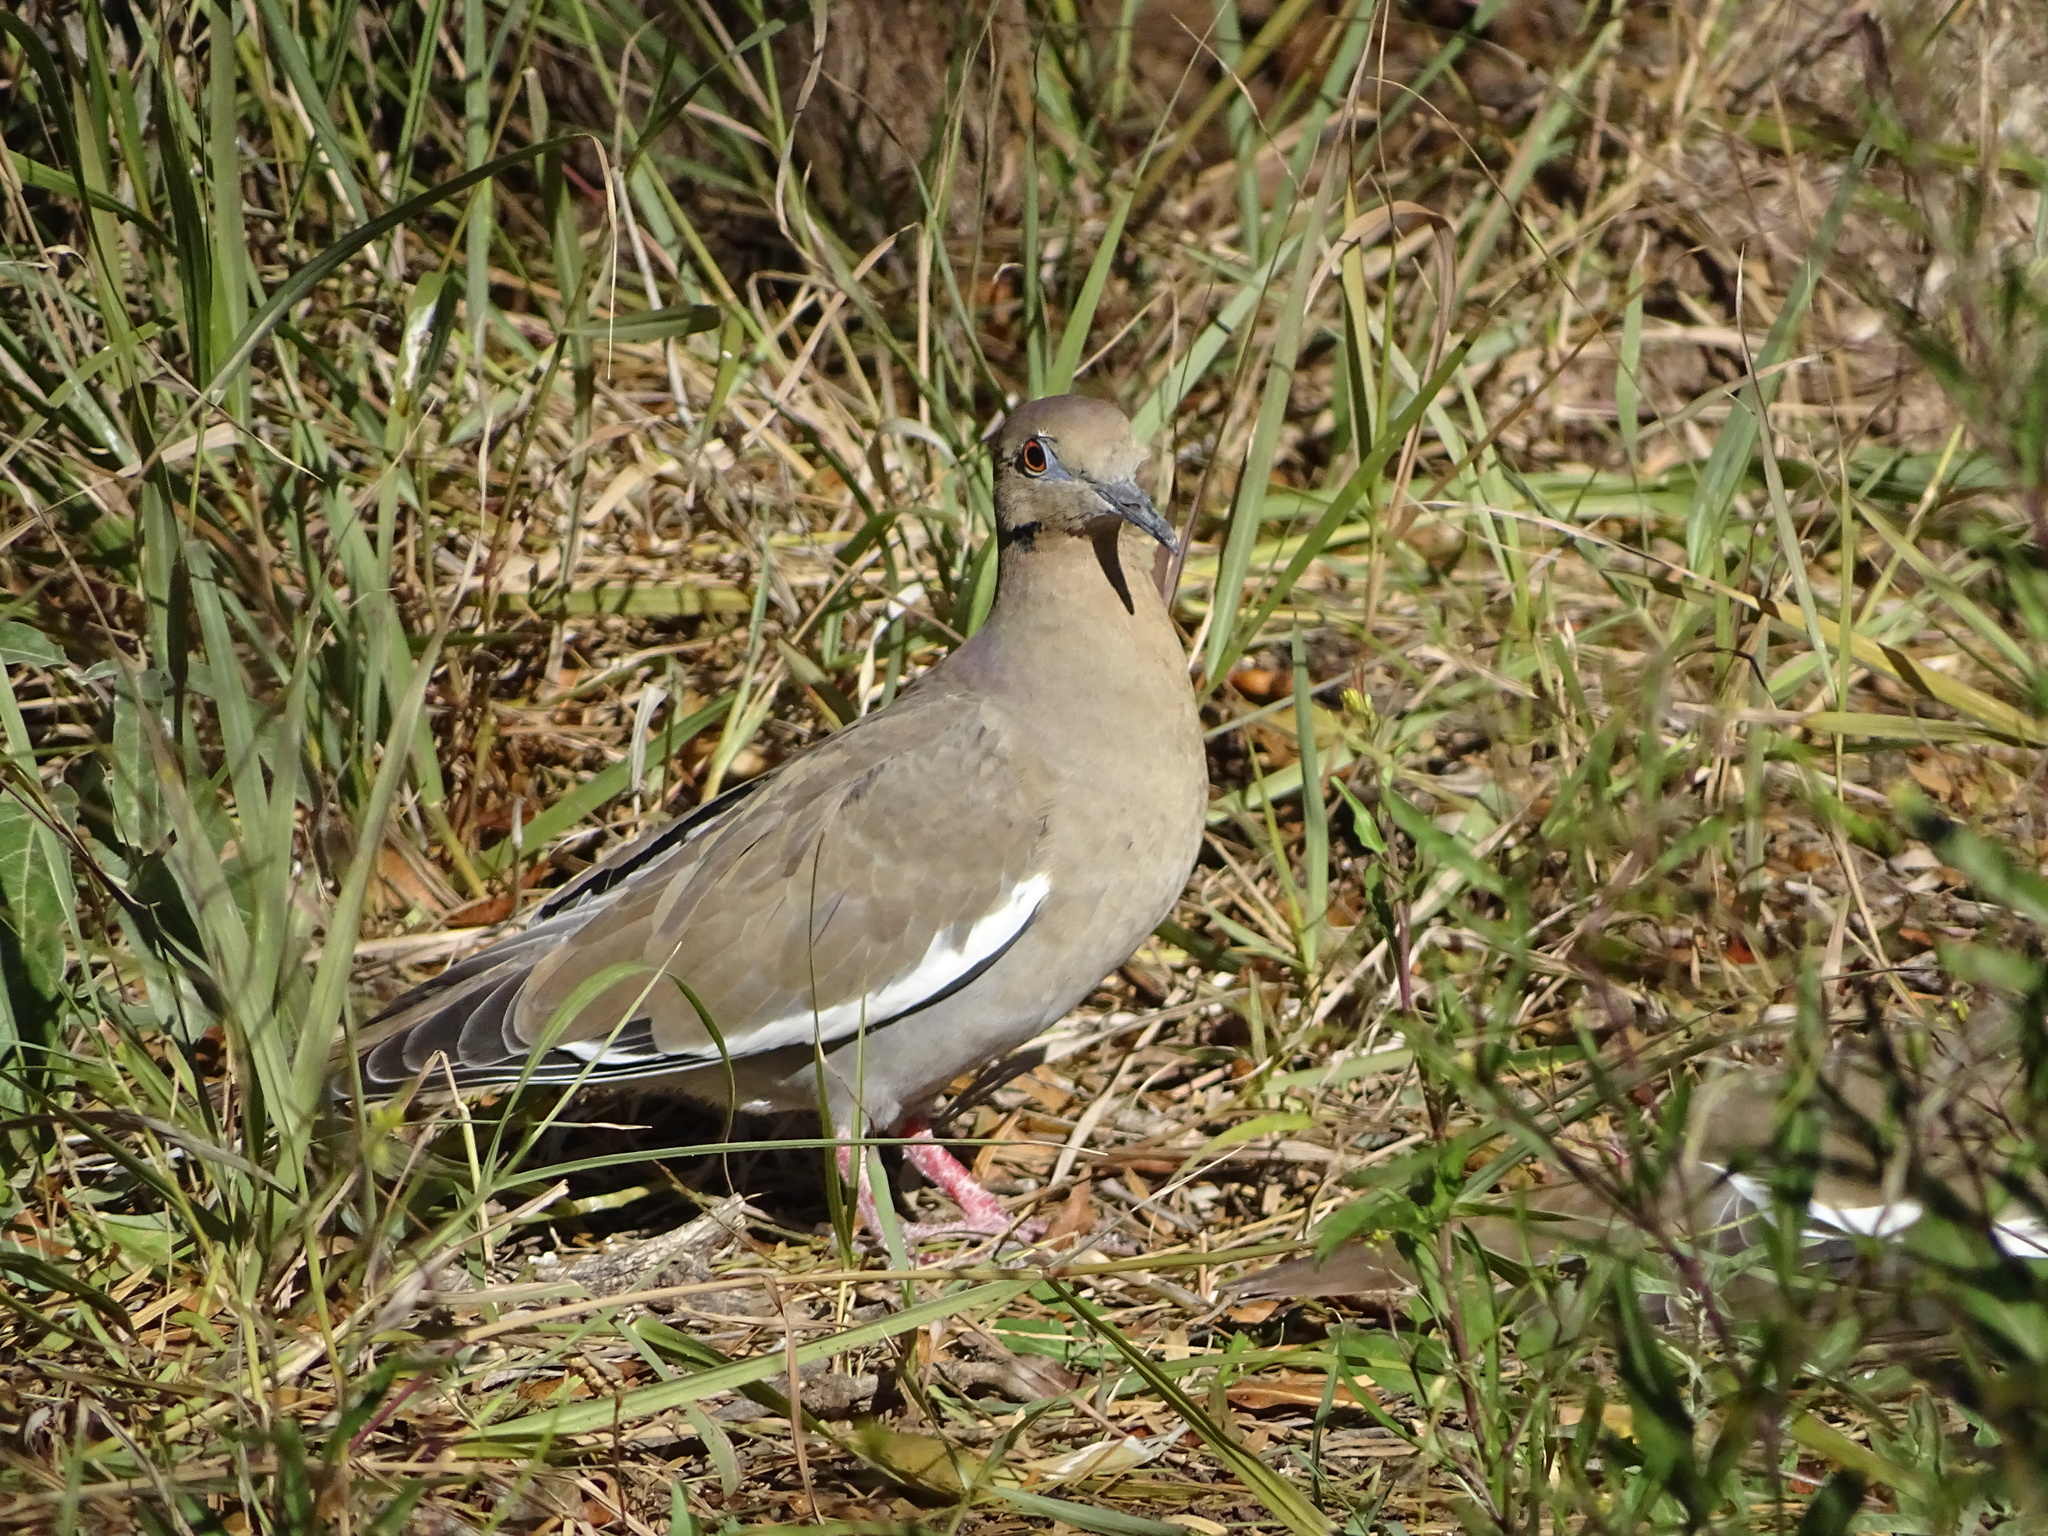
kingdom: Animalia
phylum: Chordata
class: Aves
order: Columbiformes
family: Columbidae
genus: Zenaida
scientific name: Zenaida asiatica
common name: White-winged dove
